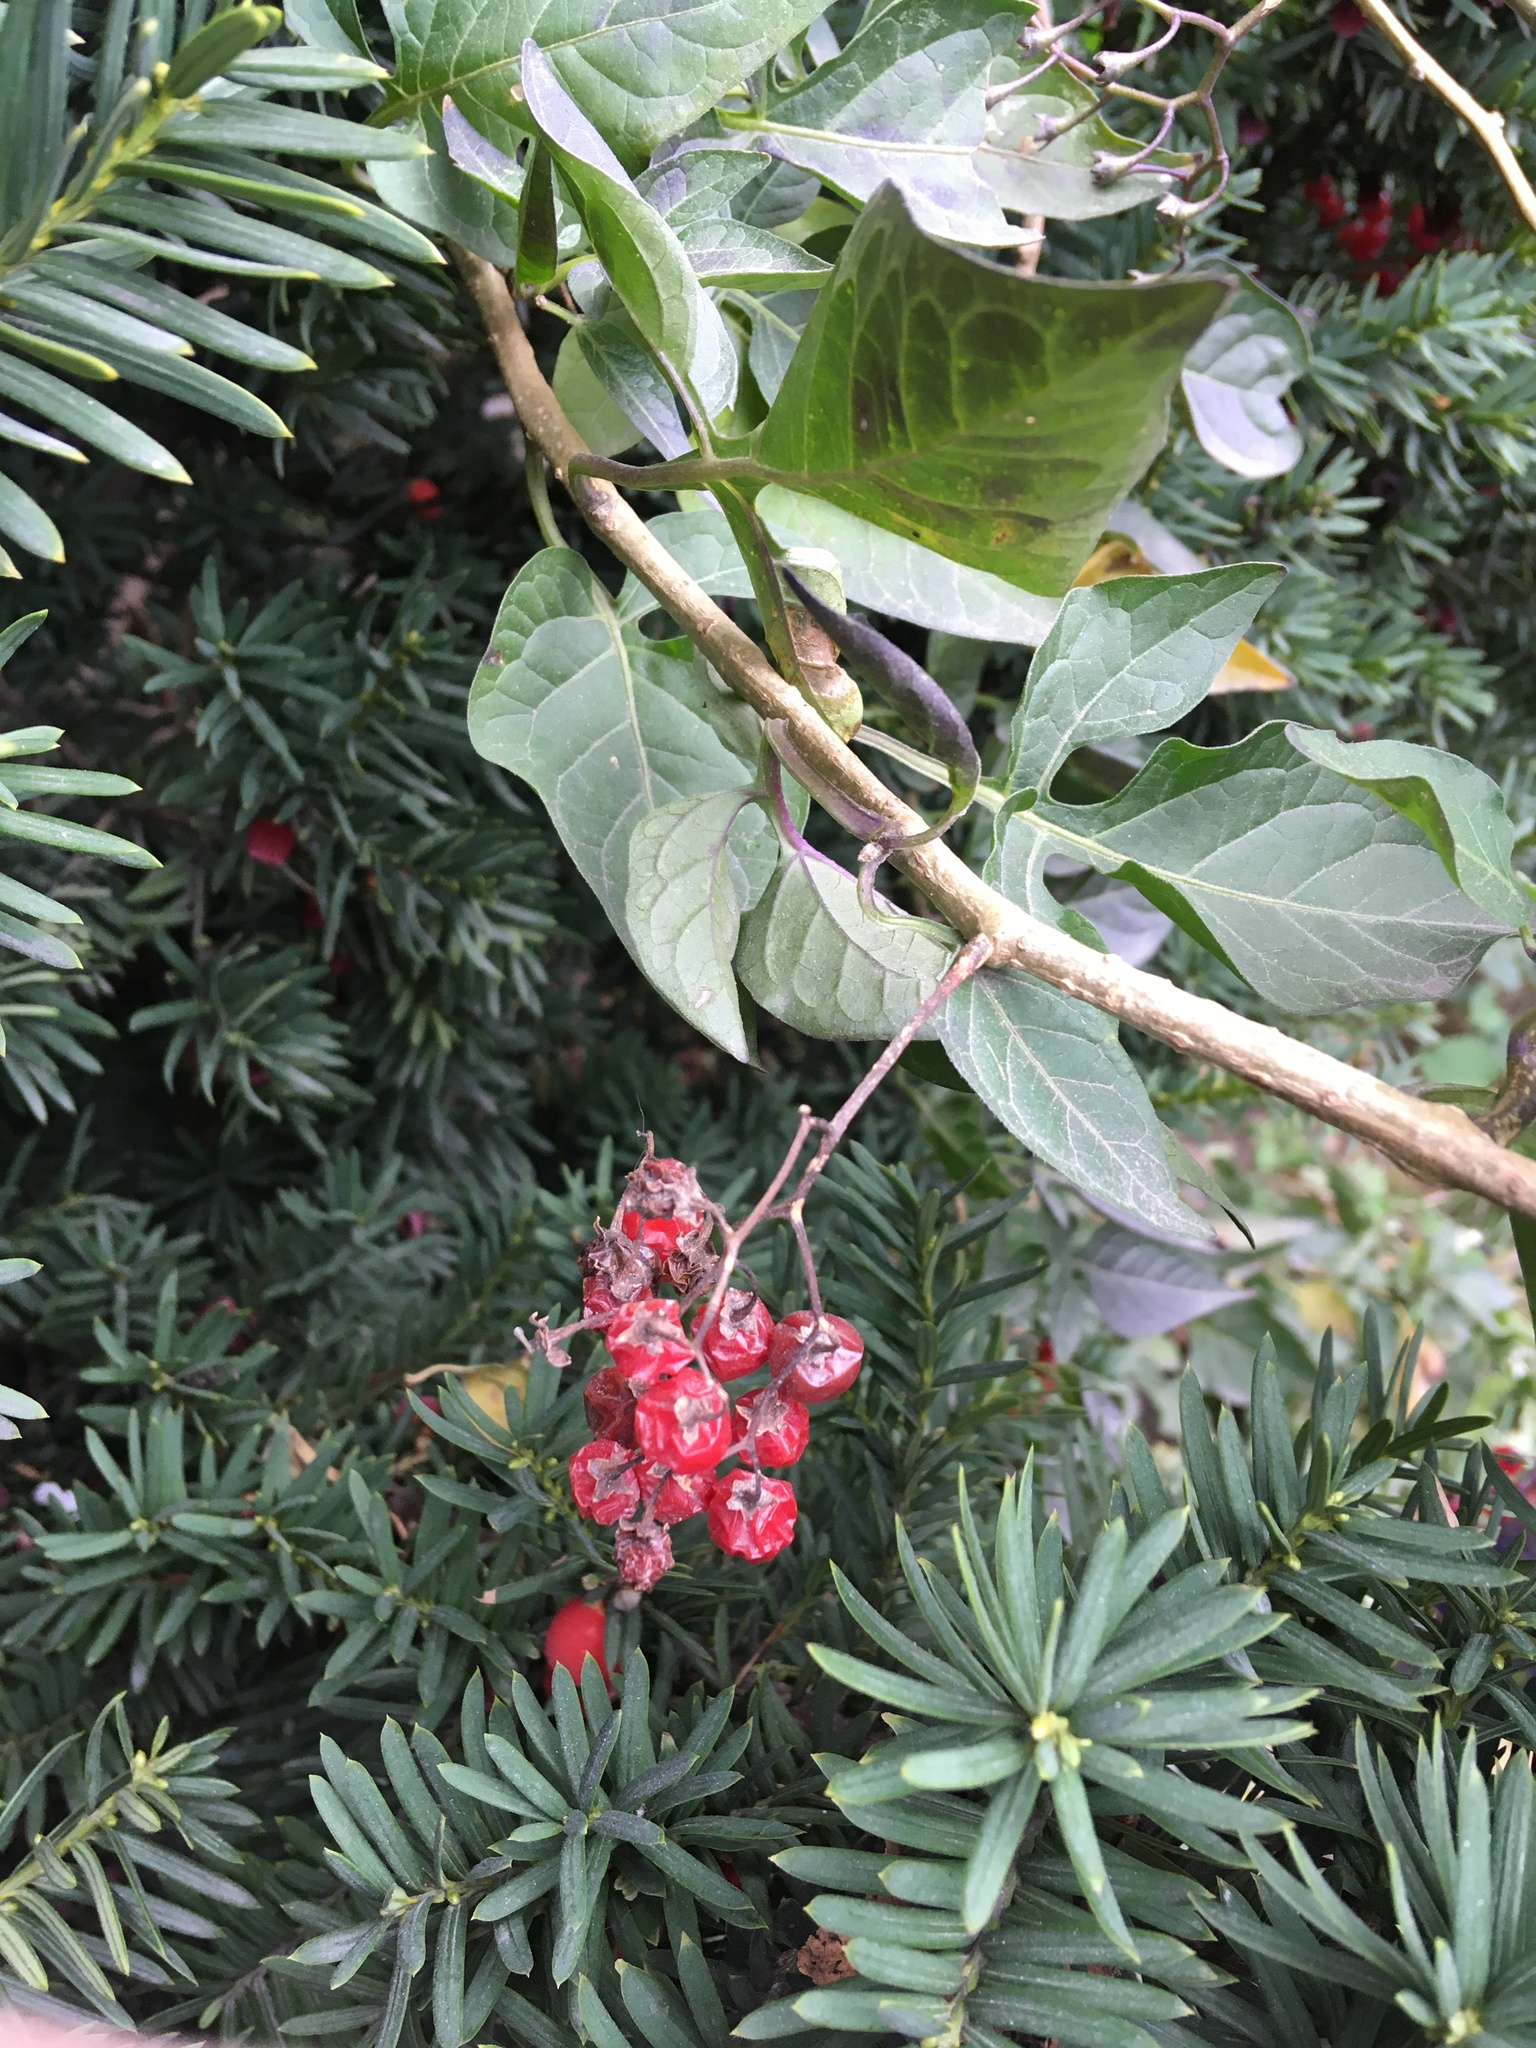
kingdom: Plantae
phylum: Tracheophyta
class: Magnoliopsida
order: Solanales
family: Solanaceae
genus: Solanum
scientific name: Solanum dulcamara
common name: Climbing nightshade
